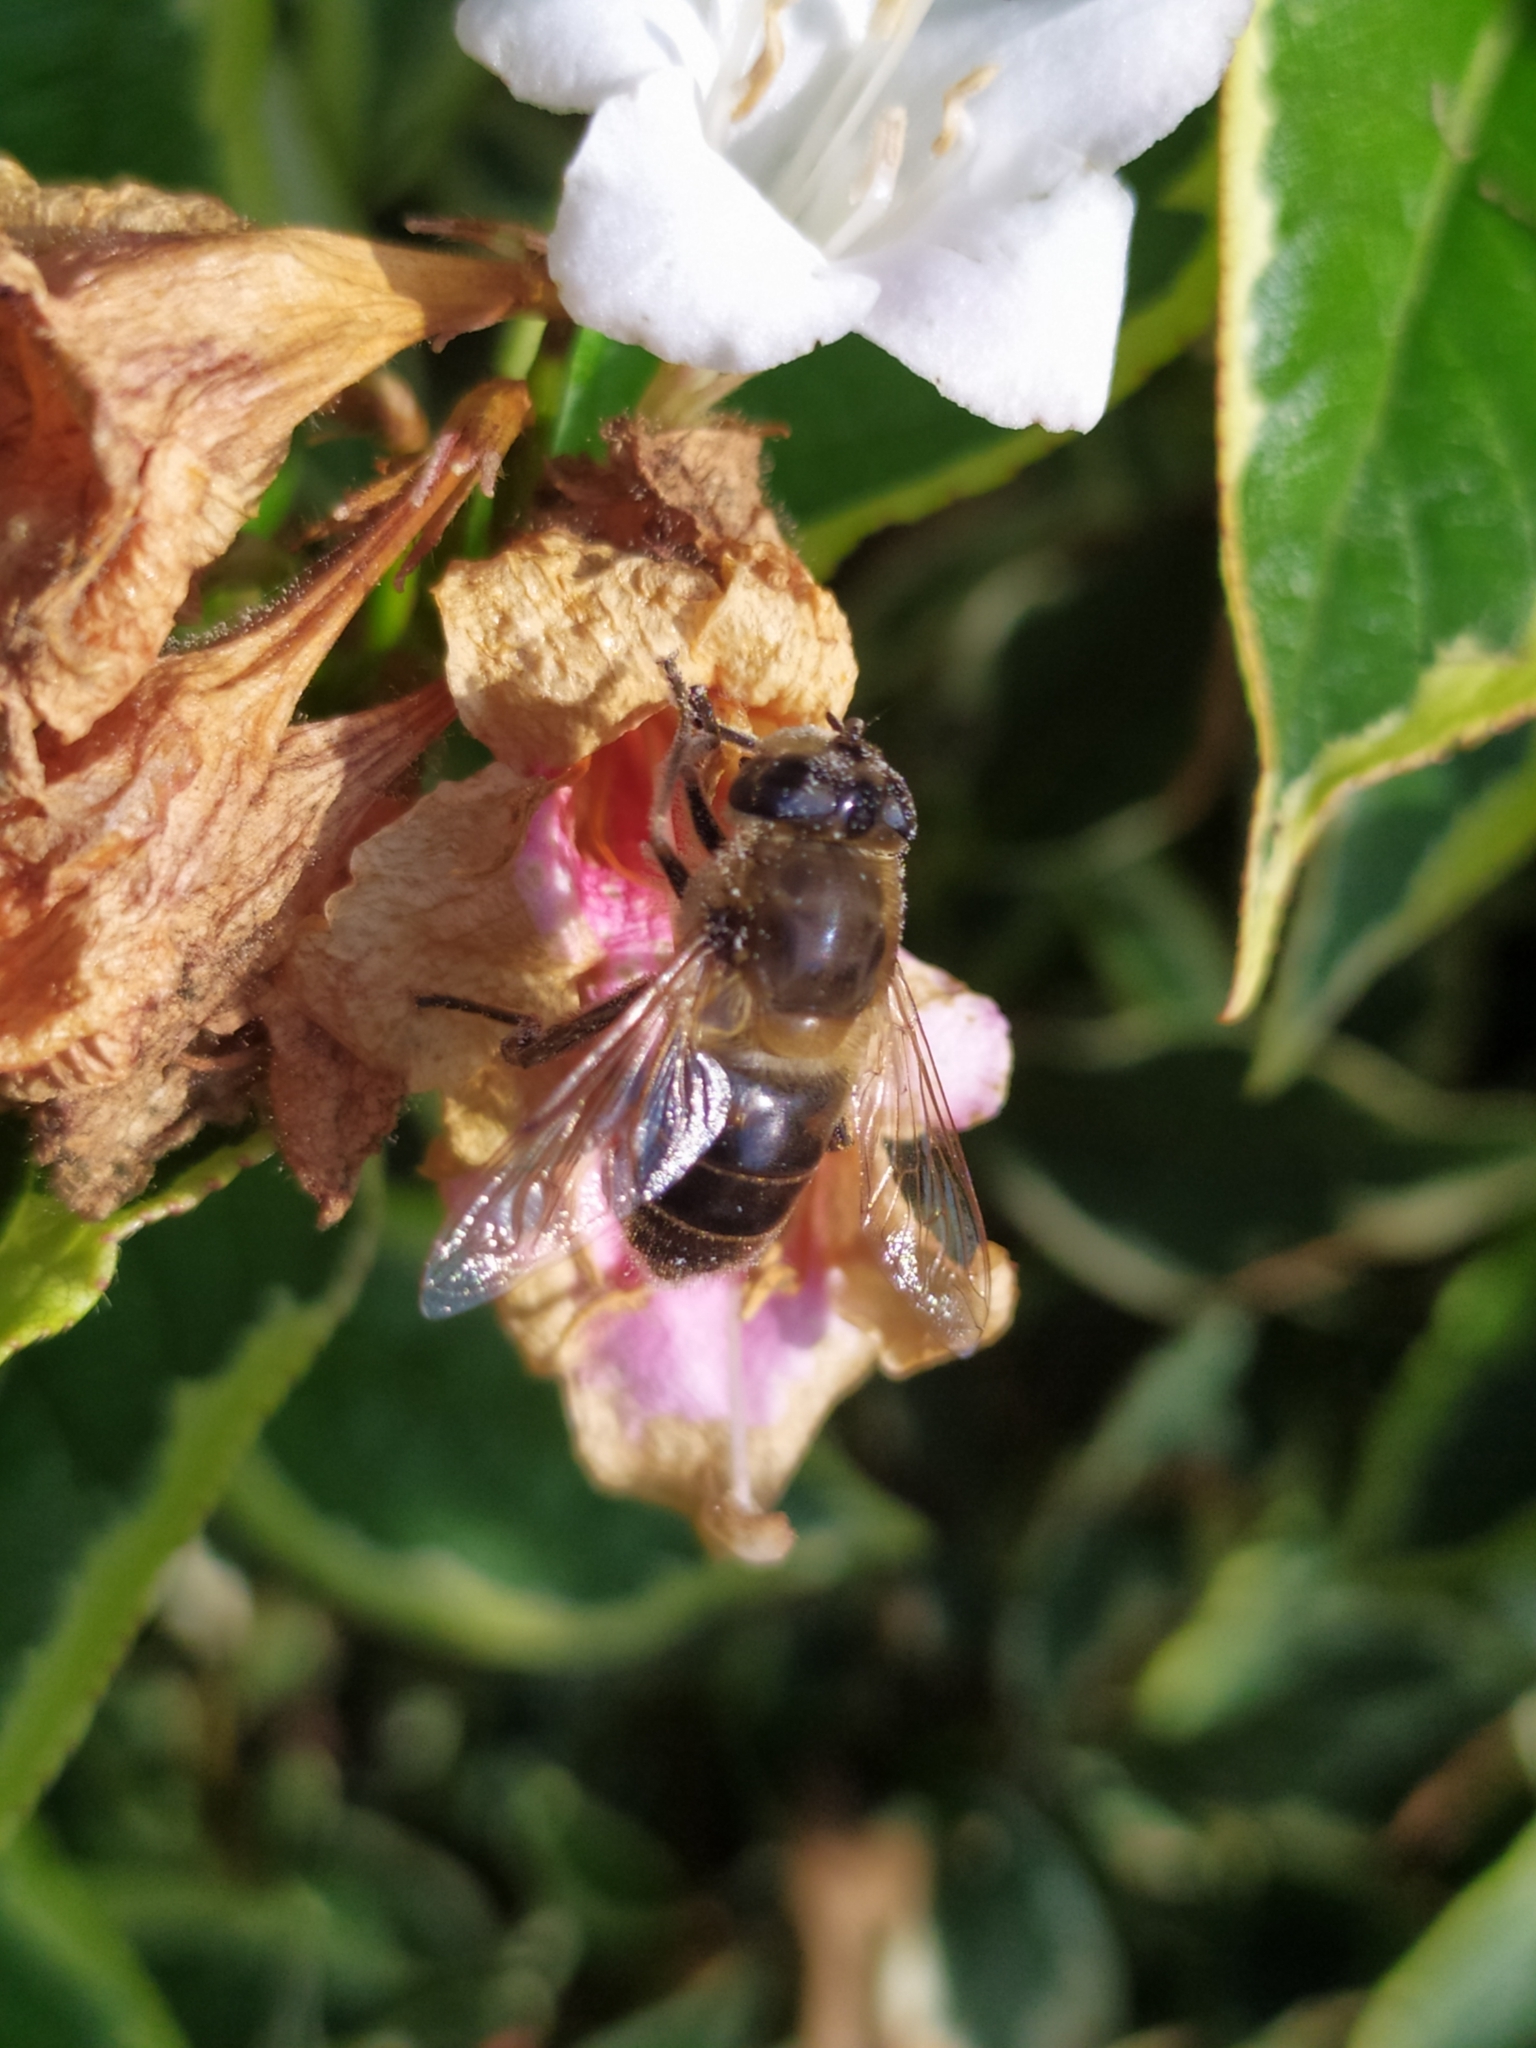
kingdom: Animalia
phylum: Arthropoda
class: Insecta
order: Diptera
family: Syrphidae
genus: Eristalis
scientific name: Eristalis tenax
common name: Drone fly
